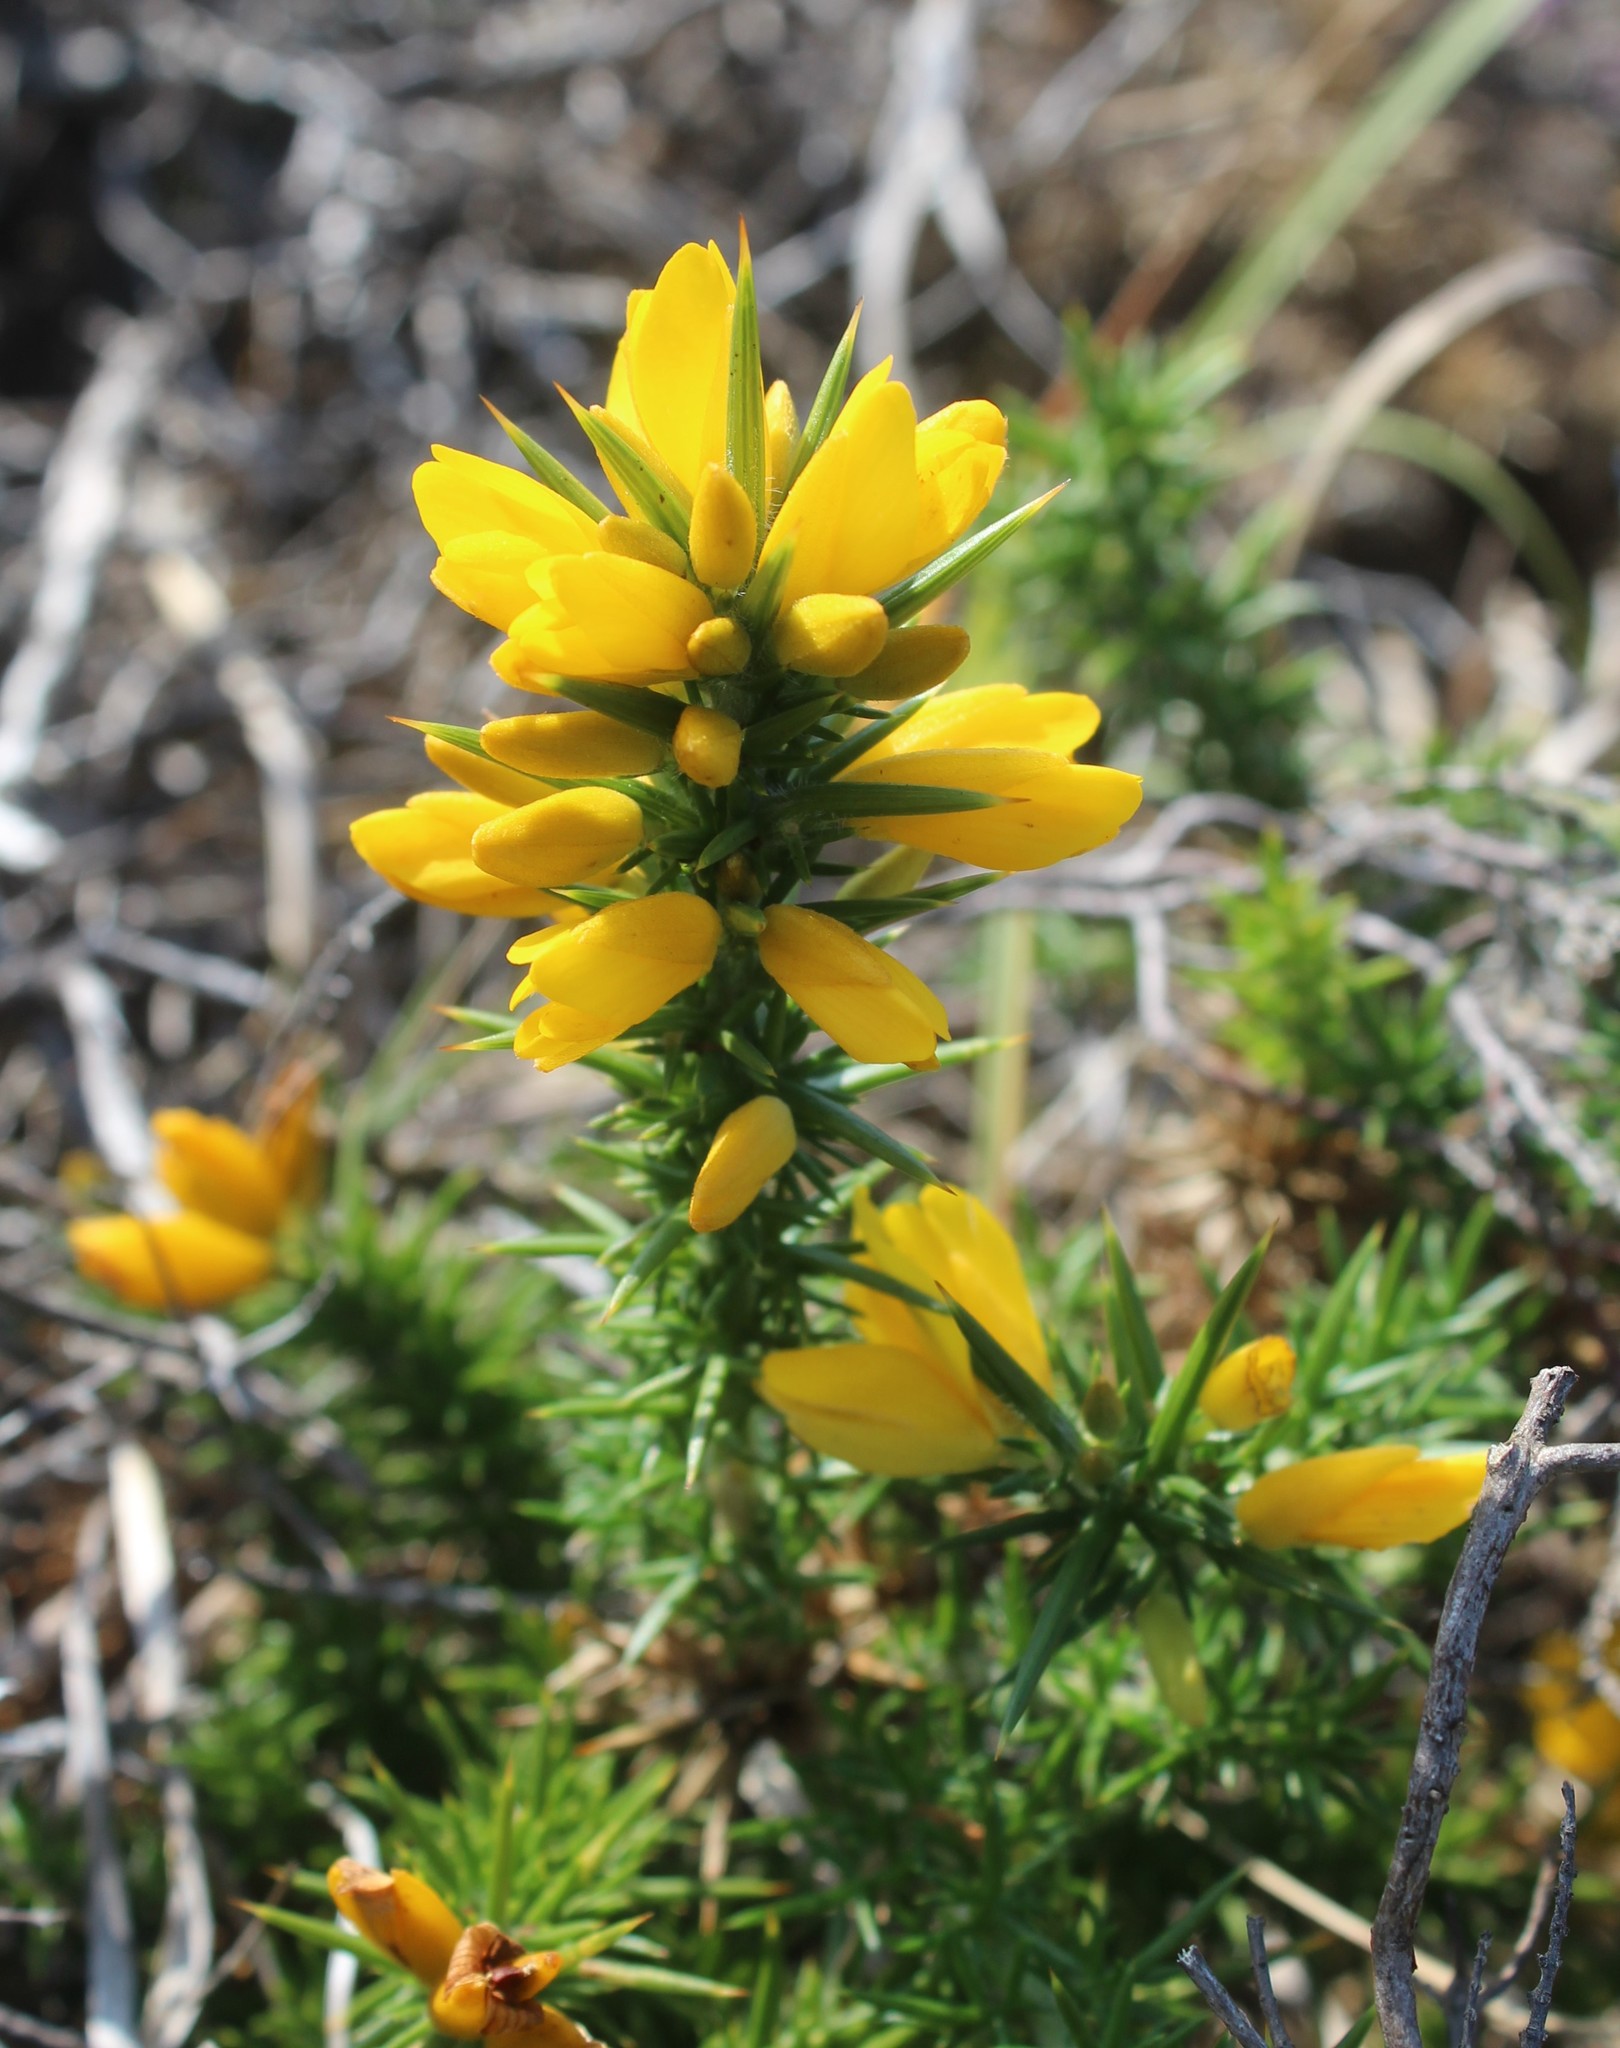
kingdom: Plantae
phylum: Tracheophyta
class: Magnoliopsida
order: Fabales
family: Fabaceae
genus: Ulex
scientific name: Ulex gallii
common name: Western gorse
